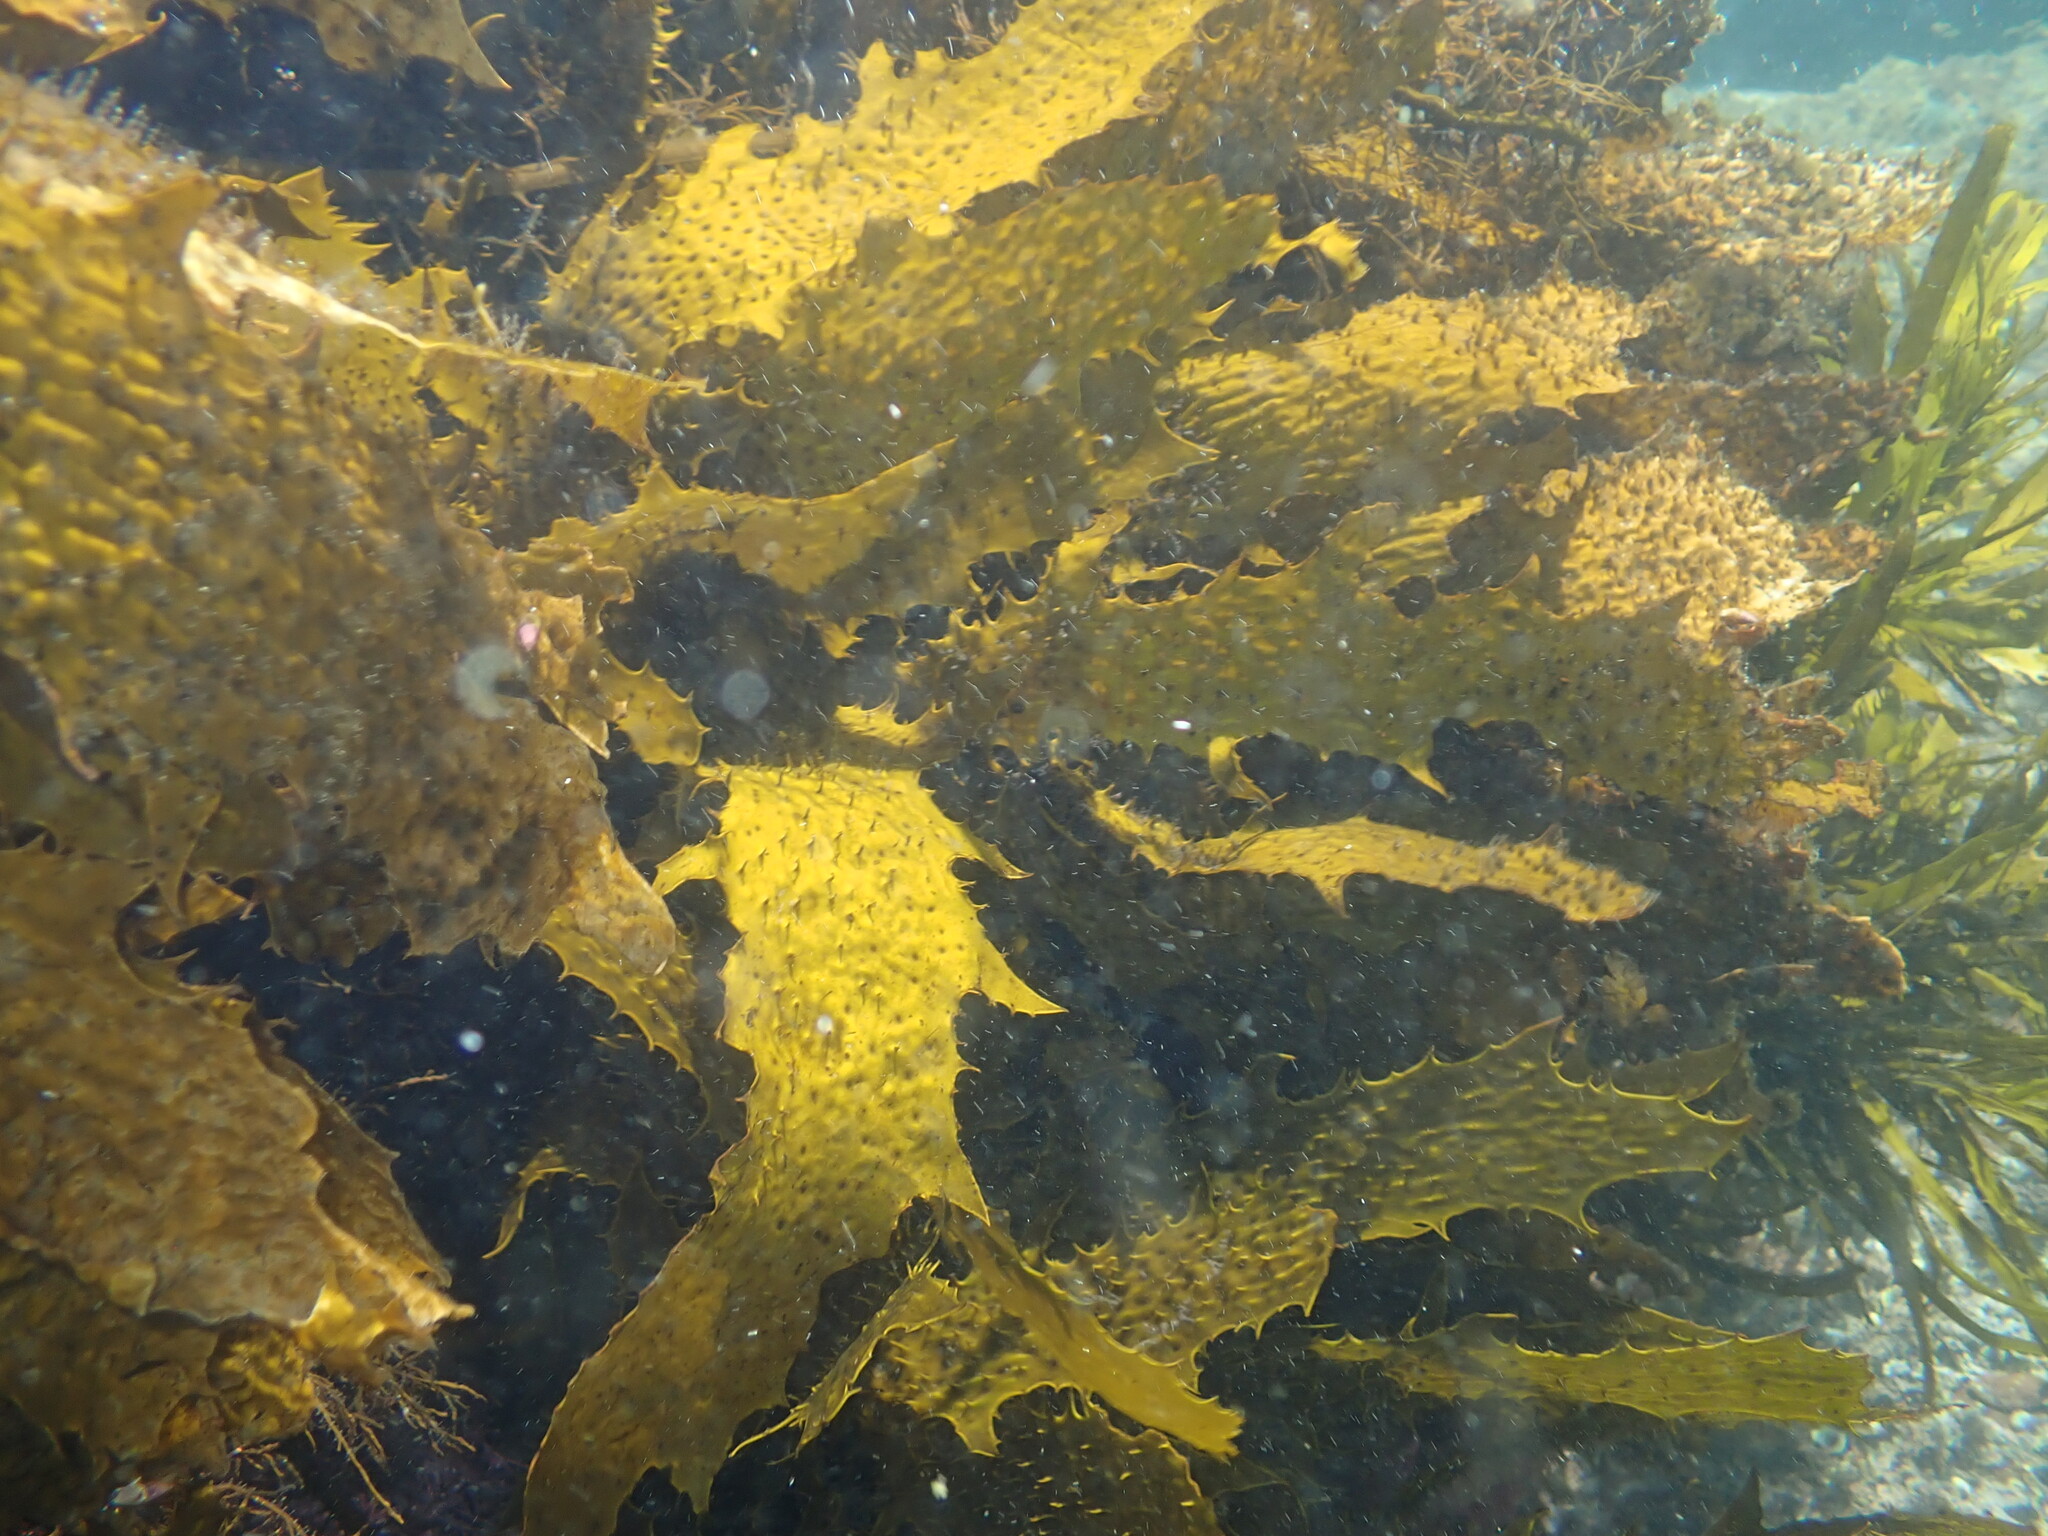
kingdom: Chromista
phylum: Ochrophyta
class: Phaeophyceae
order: Laminariales
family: Lessoniaceae
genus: Ecklonia
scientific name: Ecklonia radiata
